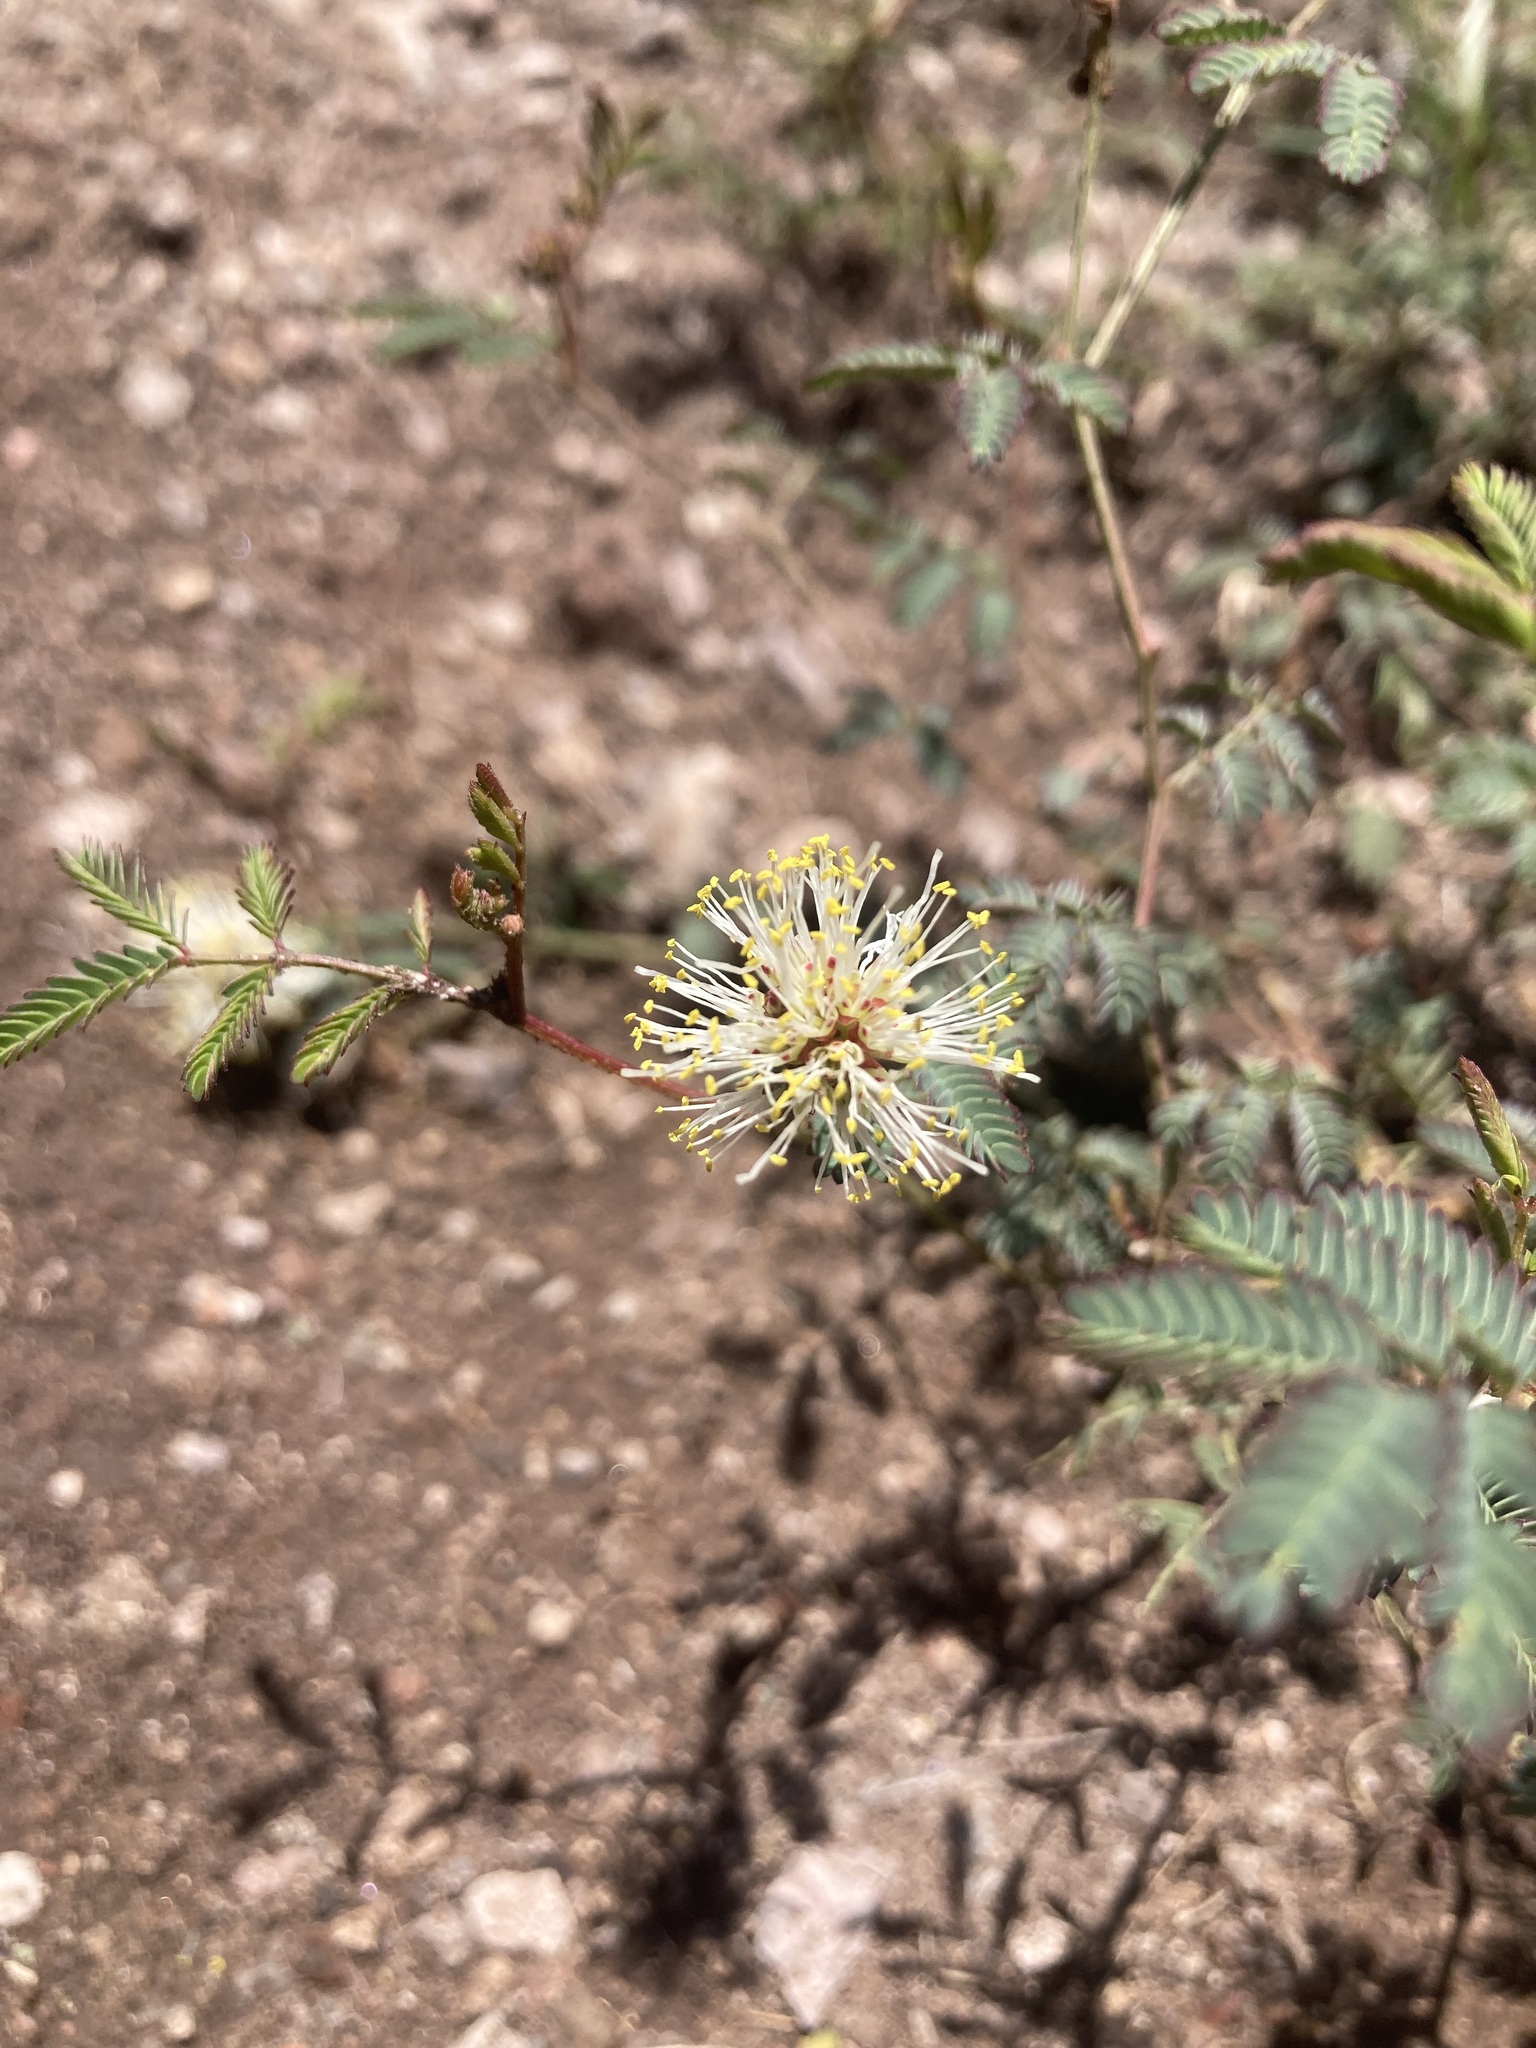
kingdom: Plantae
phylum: Tracheophyta
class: Magnoliopsida
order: Fabales
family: Fabaceae
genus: Desmanthus
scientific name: Desmanthus cooleyi
